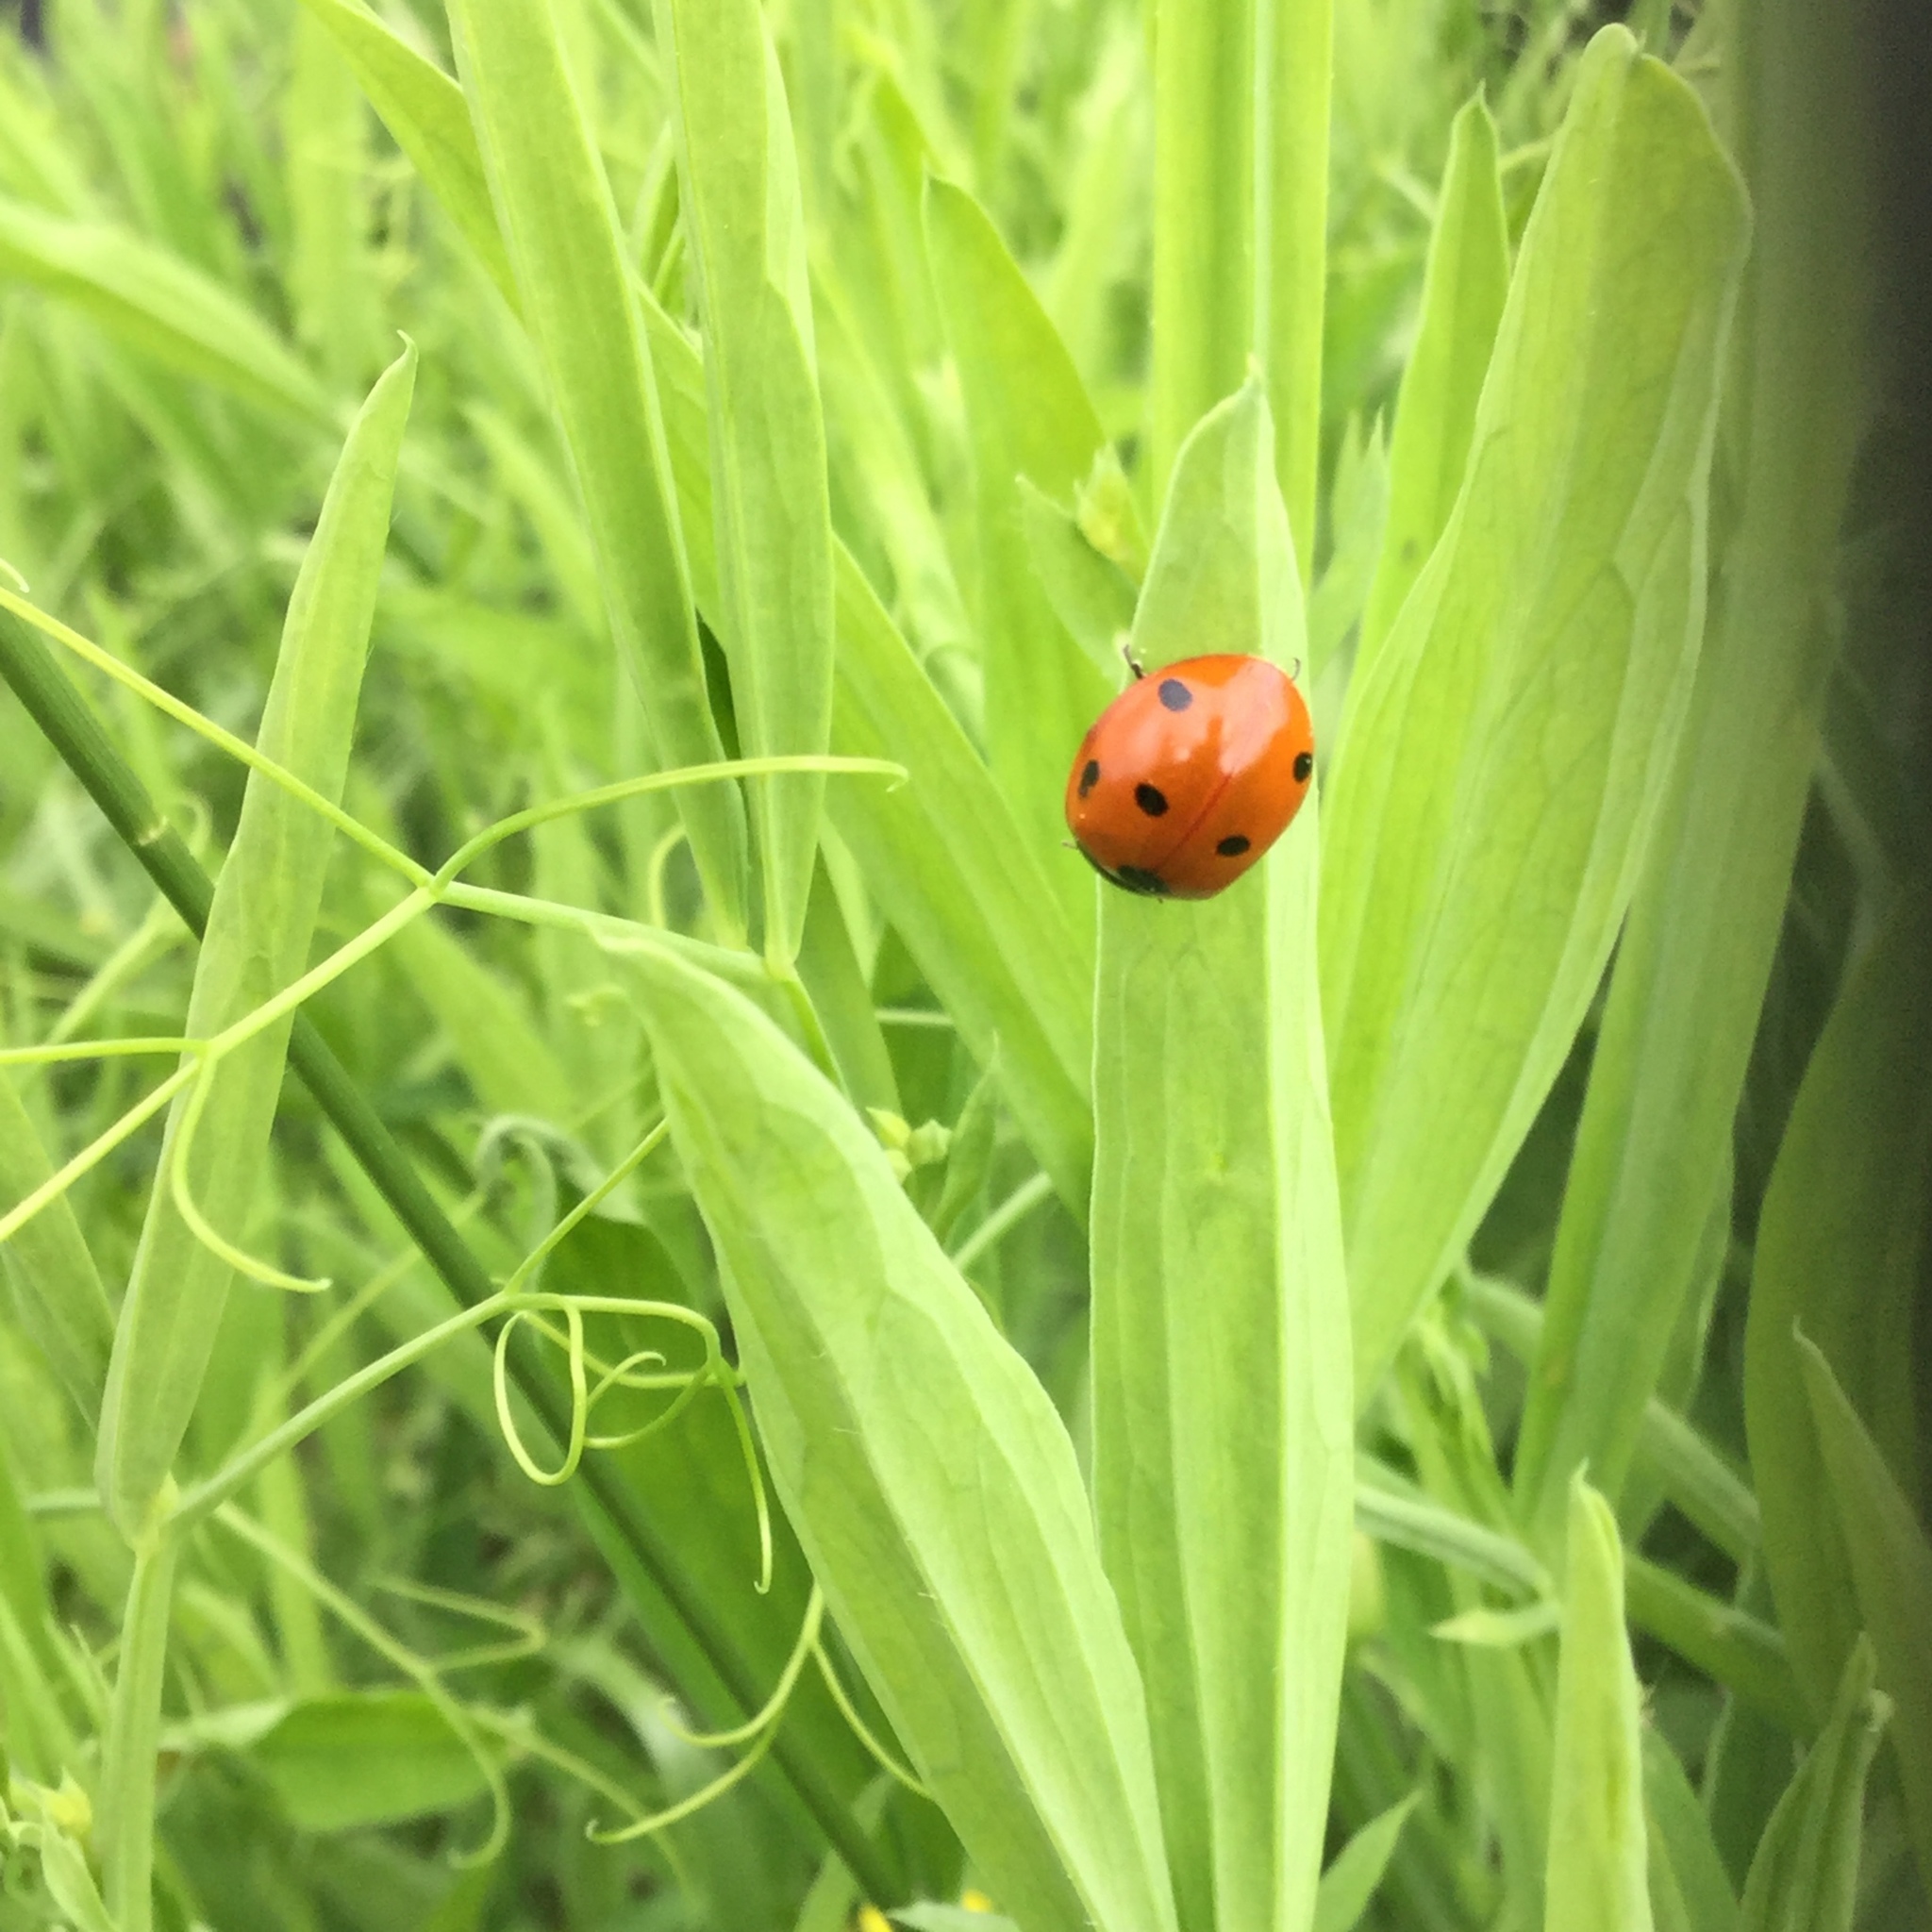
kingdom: Animalia
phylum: Arthropoda
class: Insecta
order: Coleoptera
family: Coccinellidae
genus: Coccinella
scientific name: Coccinella septempunctata
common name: Sevenspotted lady beetle
